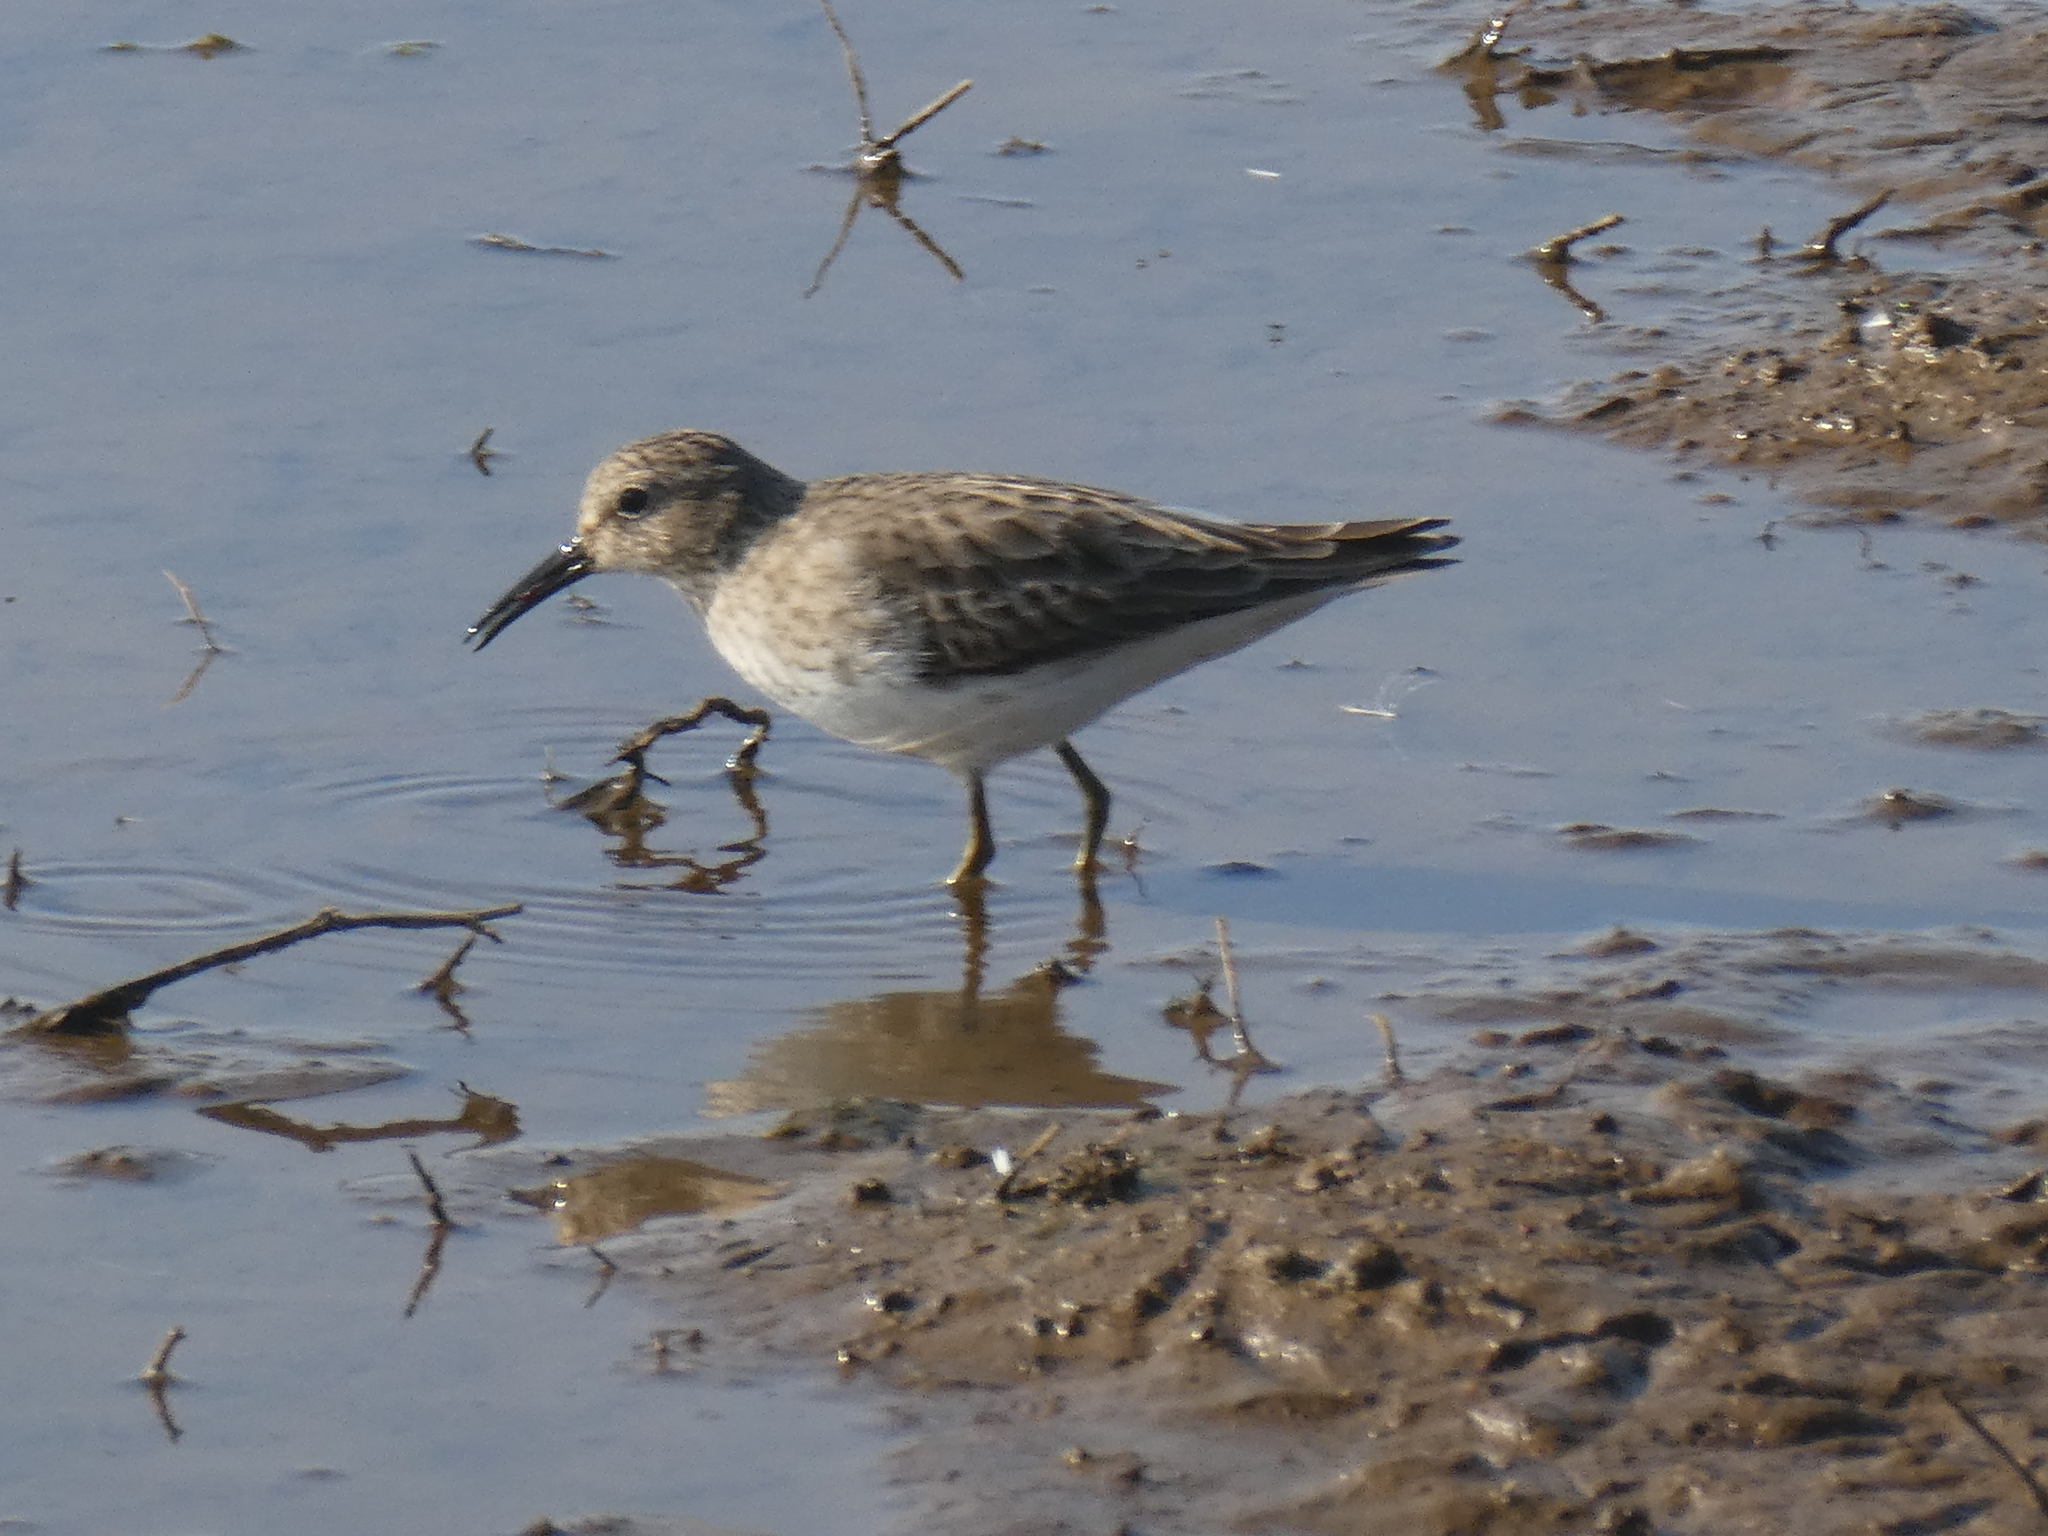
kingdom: Animalia
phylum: Chordata
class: Aves
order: Charadriiformes
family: Scolopacidae
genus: Calidris
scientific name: Calidris minutilla
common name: Least sandpiper
